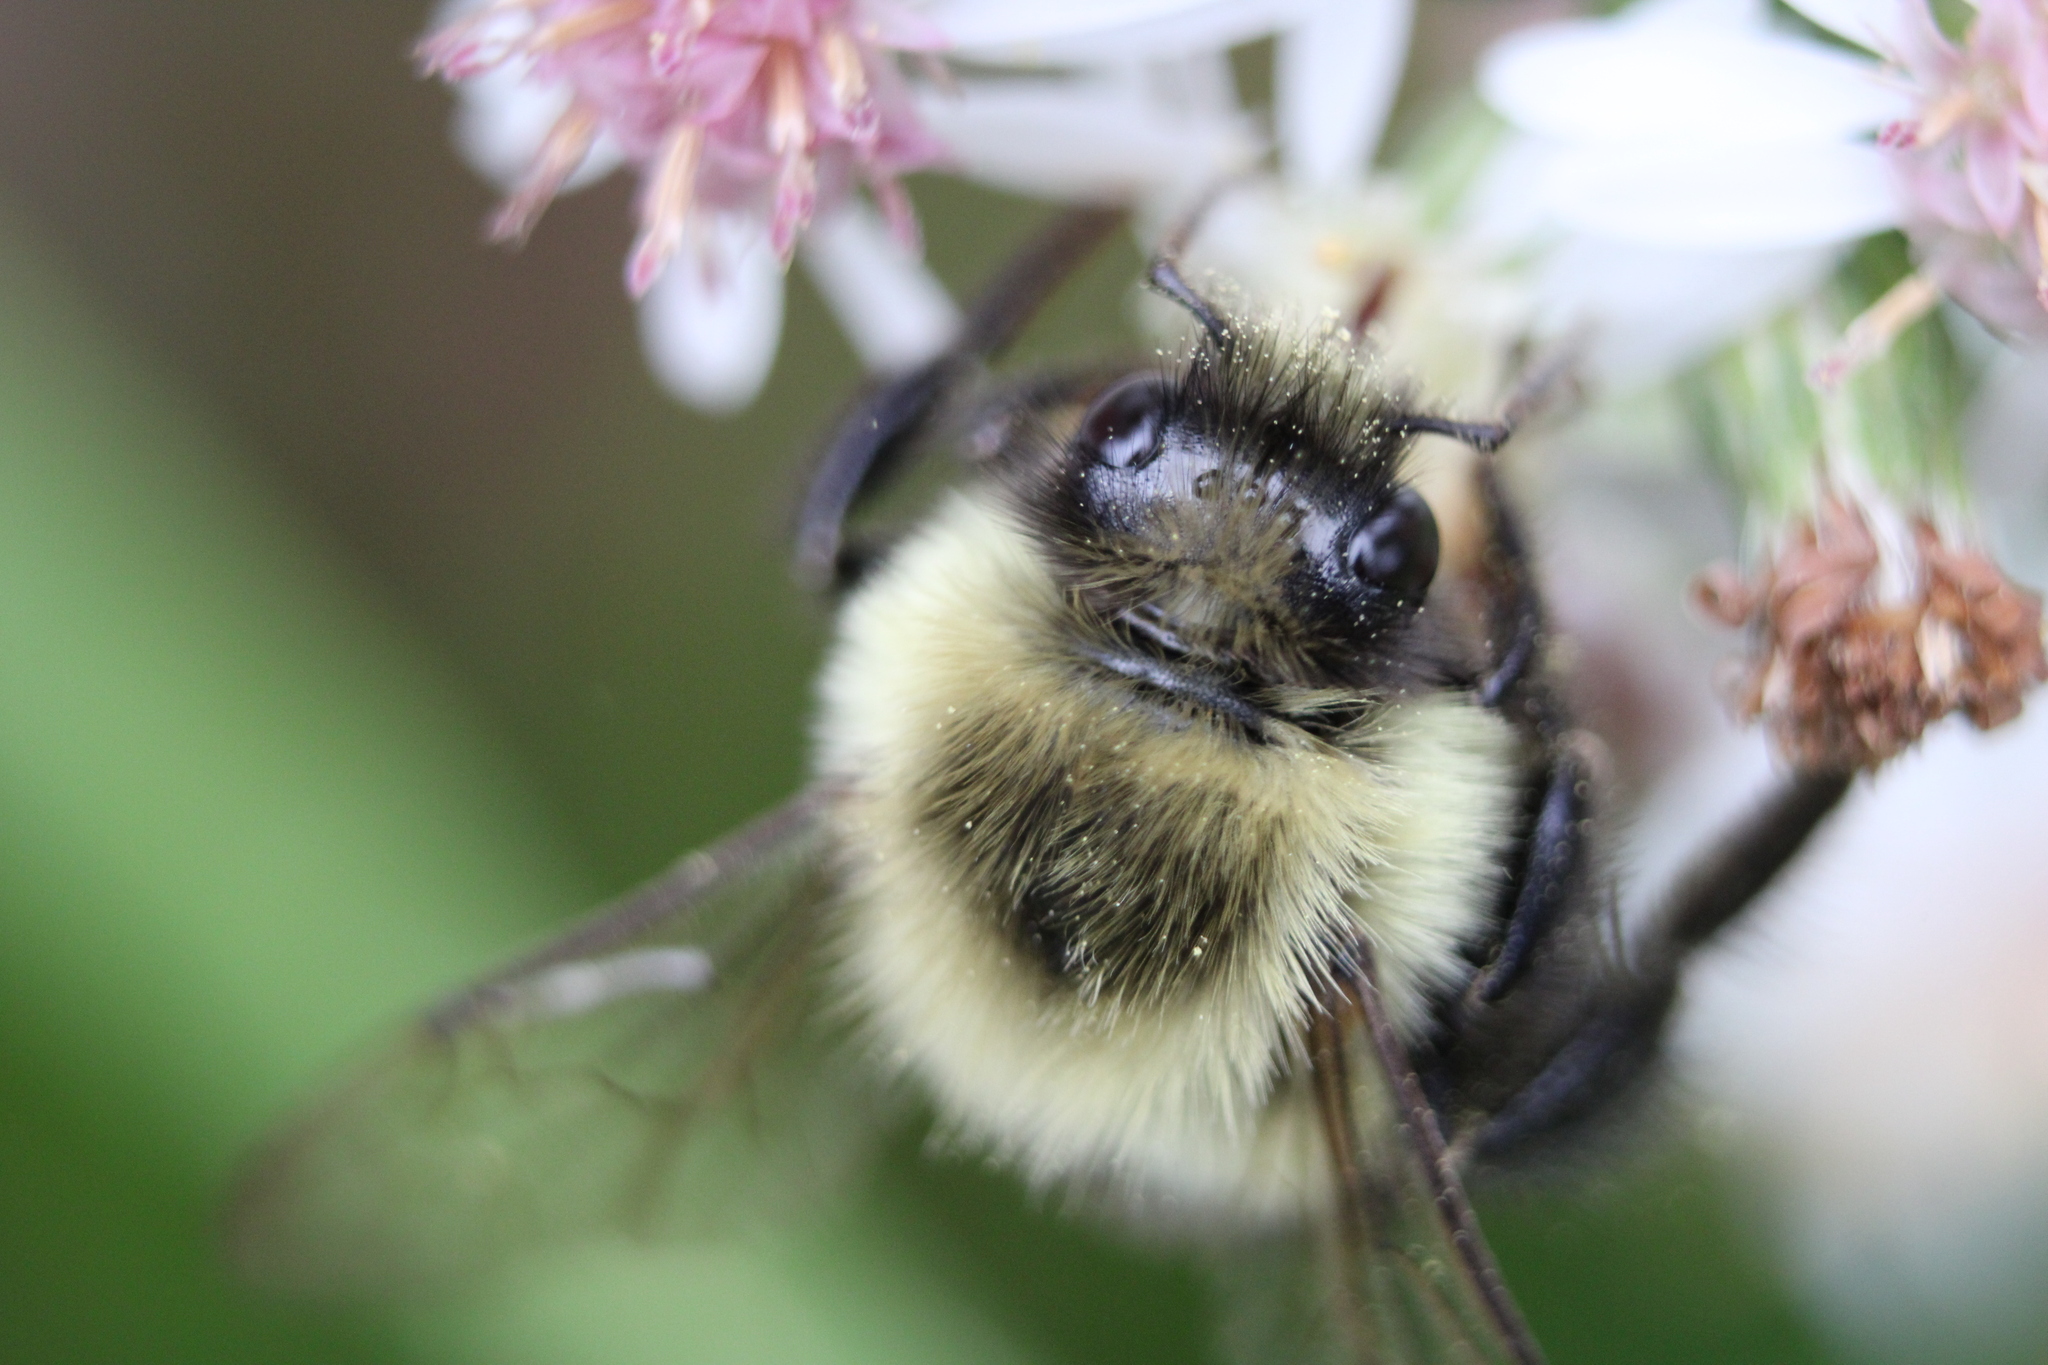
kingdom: Animalia
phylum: Arthropoda
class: Insecta
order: Hymenoptera
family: Apidae
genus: Bombus
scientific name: Bombus impatiens
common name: Common eastern bumble bee
